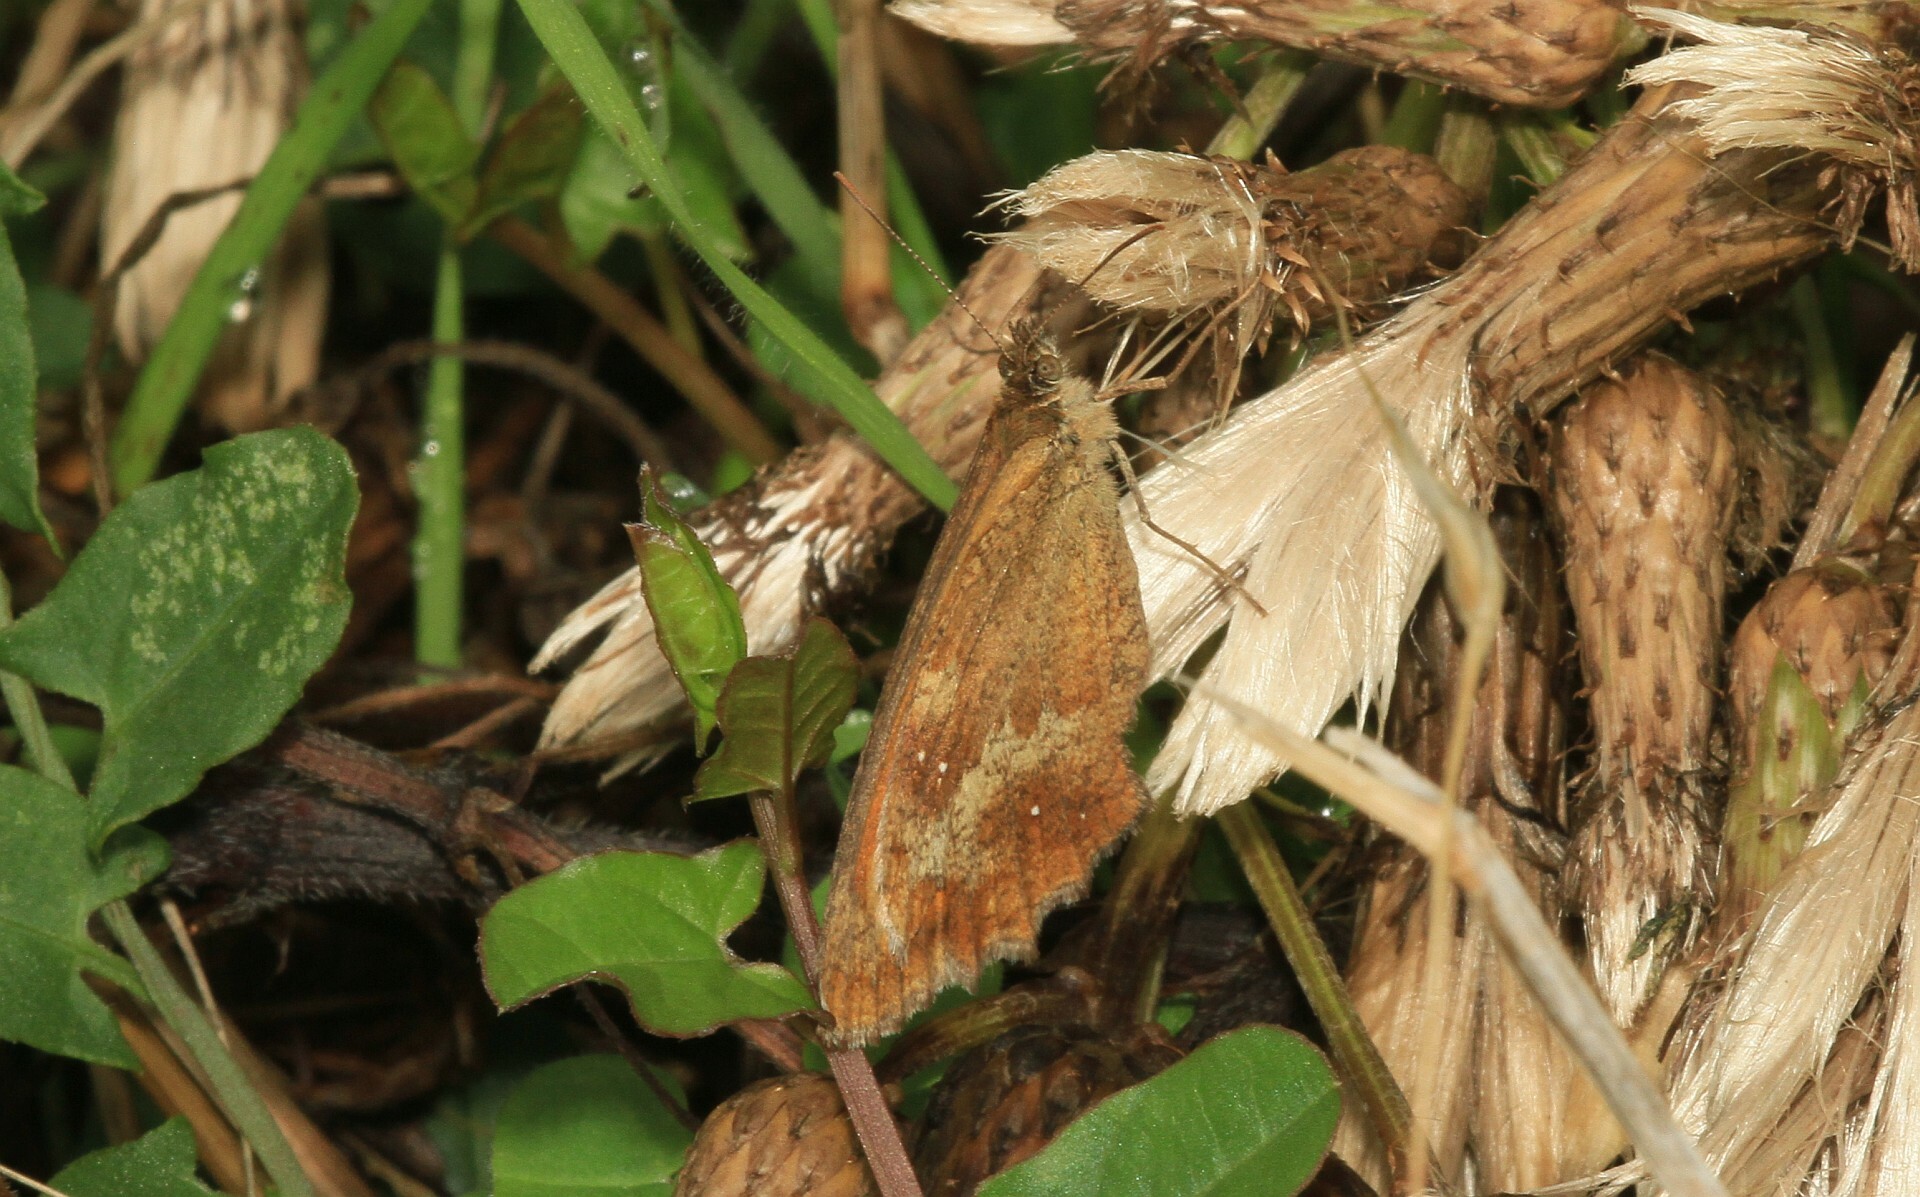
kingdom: Animalia
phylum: Arthropoda
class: Insecta
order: Lepidoptera
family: Nymphalidae
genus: Pyronia
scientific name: Pyronia tithonus
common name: Gatekeeper
